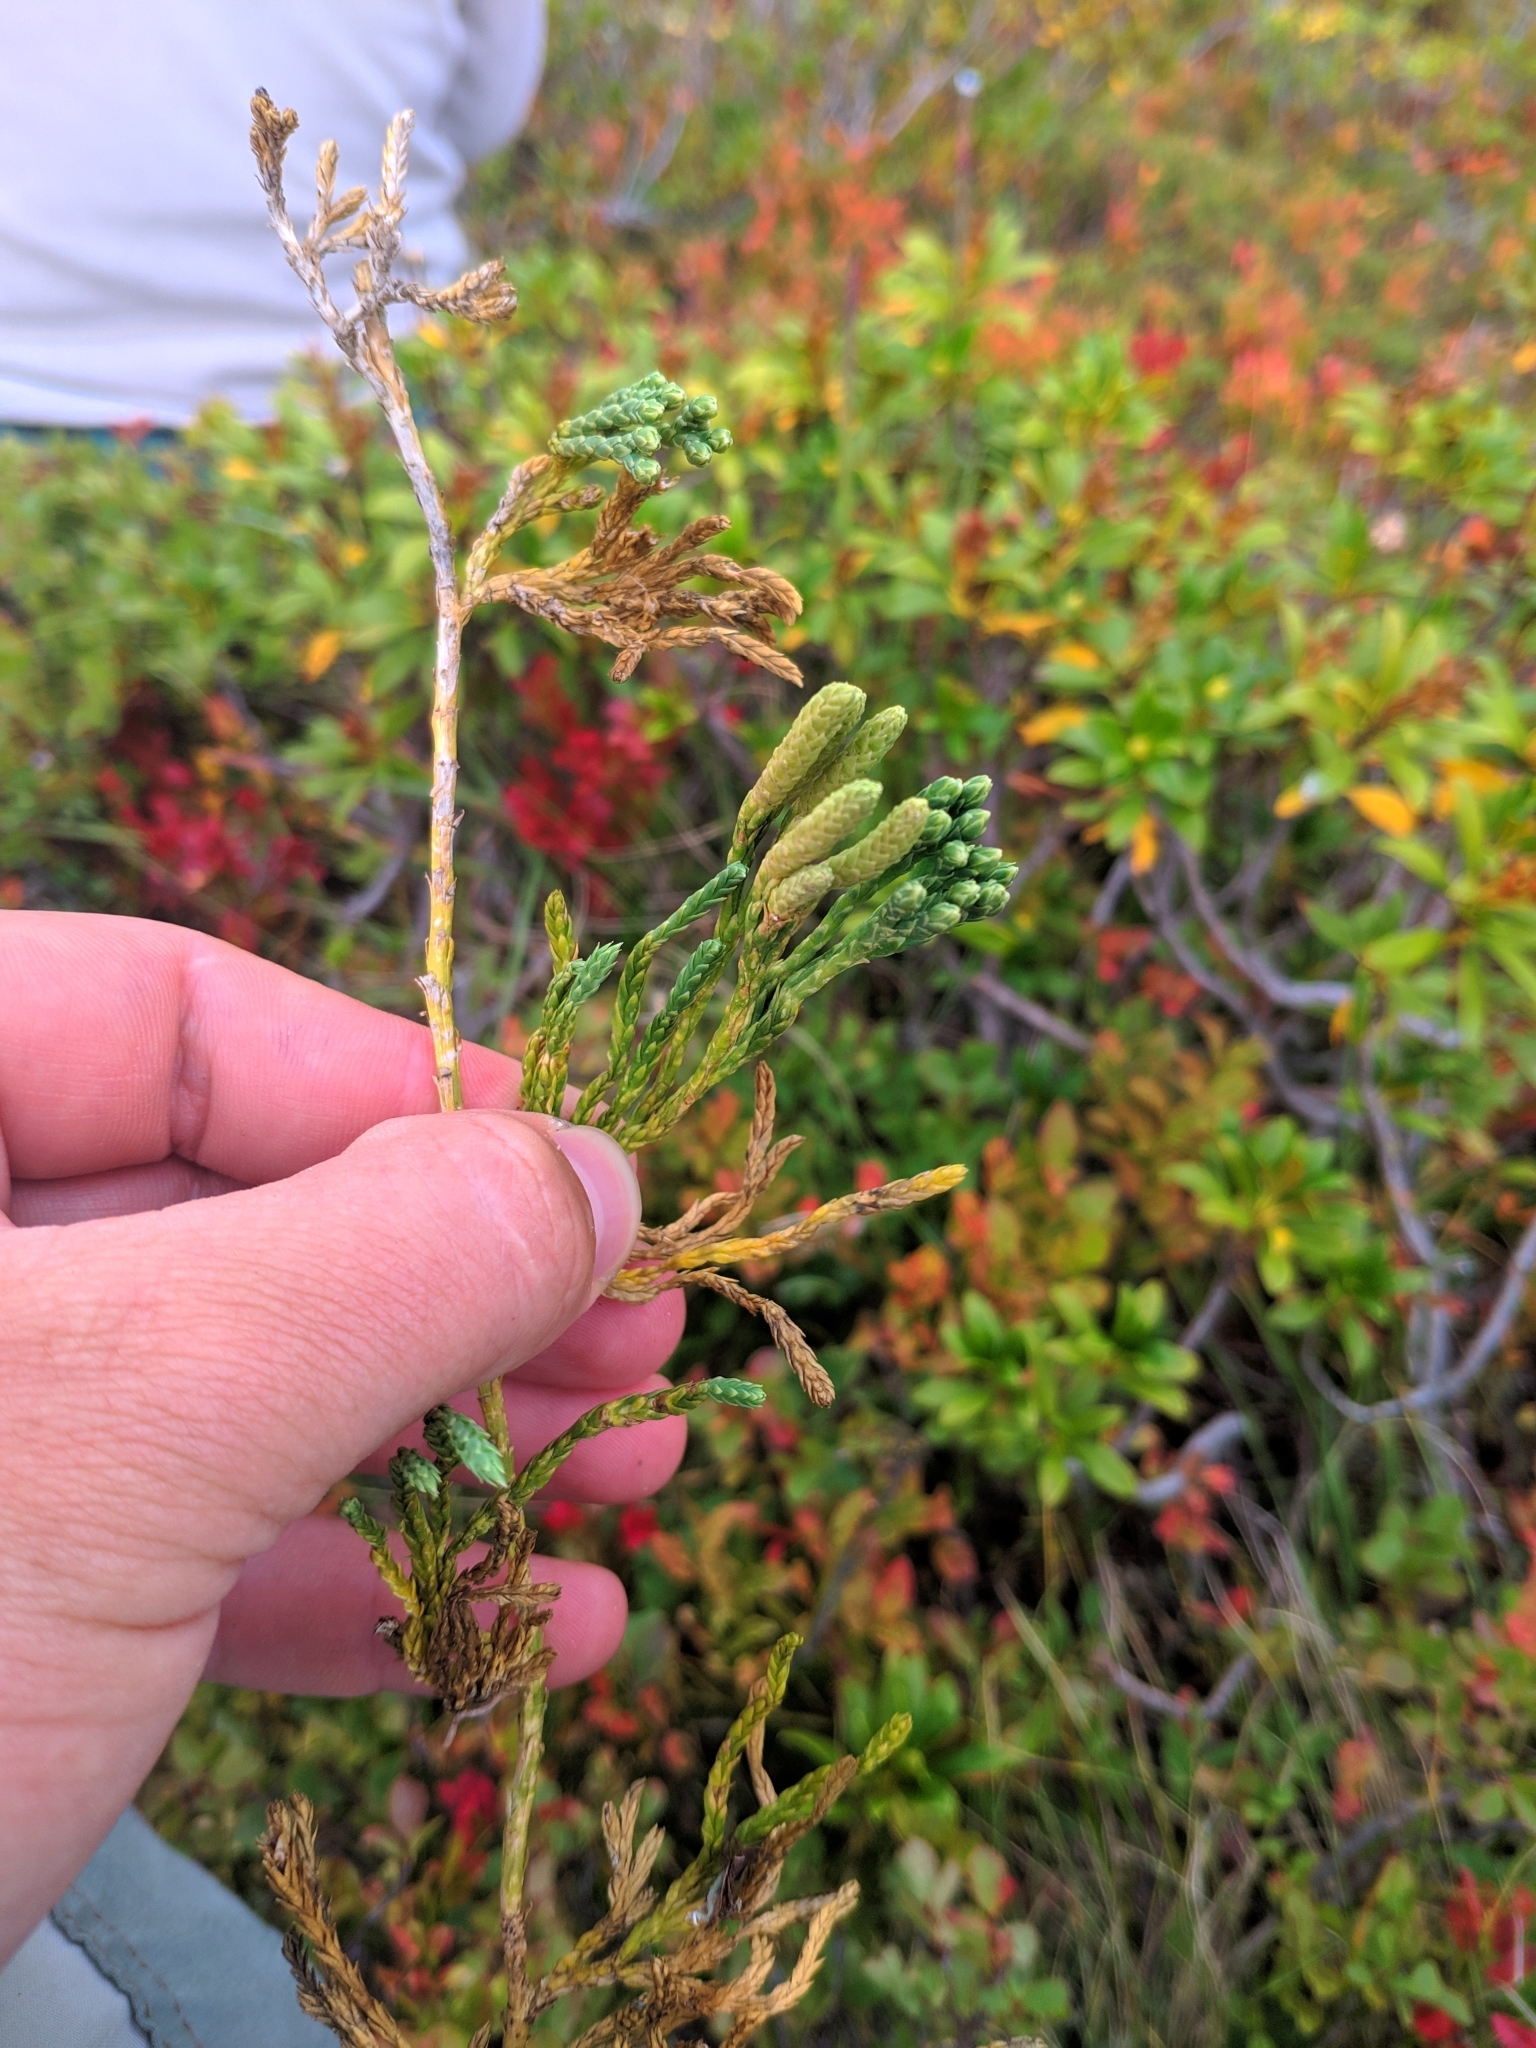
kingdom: Plantae
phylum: Tracheophyta
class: Lycopodiopsida
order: Lycopodiales
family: Lycopodiaceae
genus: Diphasiastrum
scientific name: Diphasiastrum alpinum
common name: Alpine clubmoss
